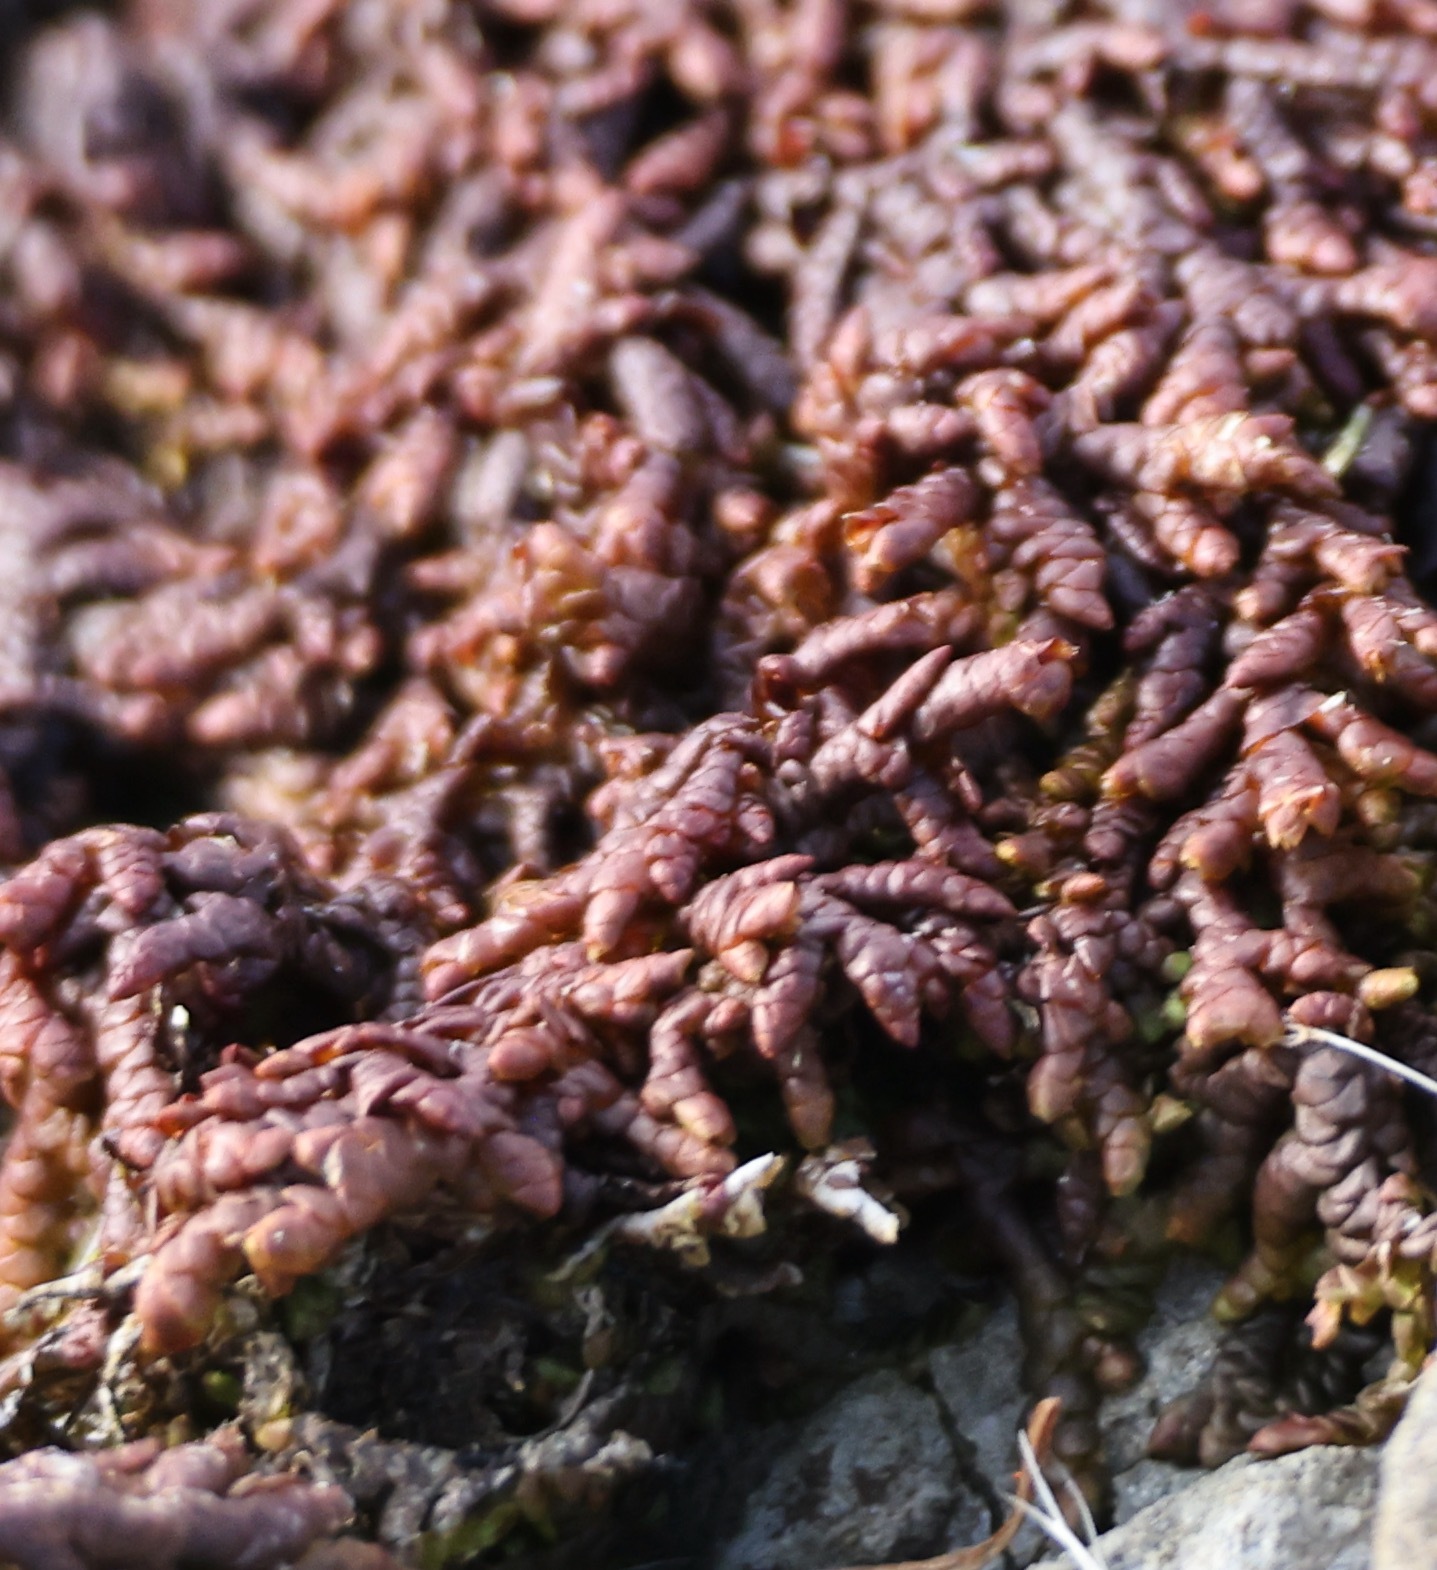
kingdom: Plantae
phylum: Marchantiophyta
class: Jungermanniopsida
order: Porellales
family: Frullaniaceae
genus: Frullania
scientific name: Frullania tamarisci
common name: Tamarisk scalewort
